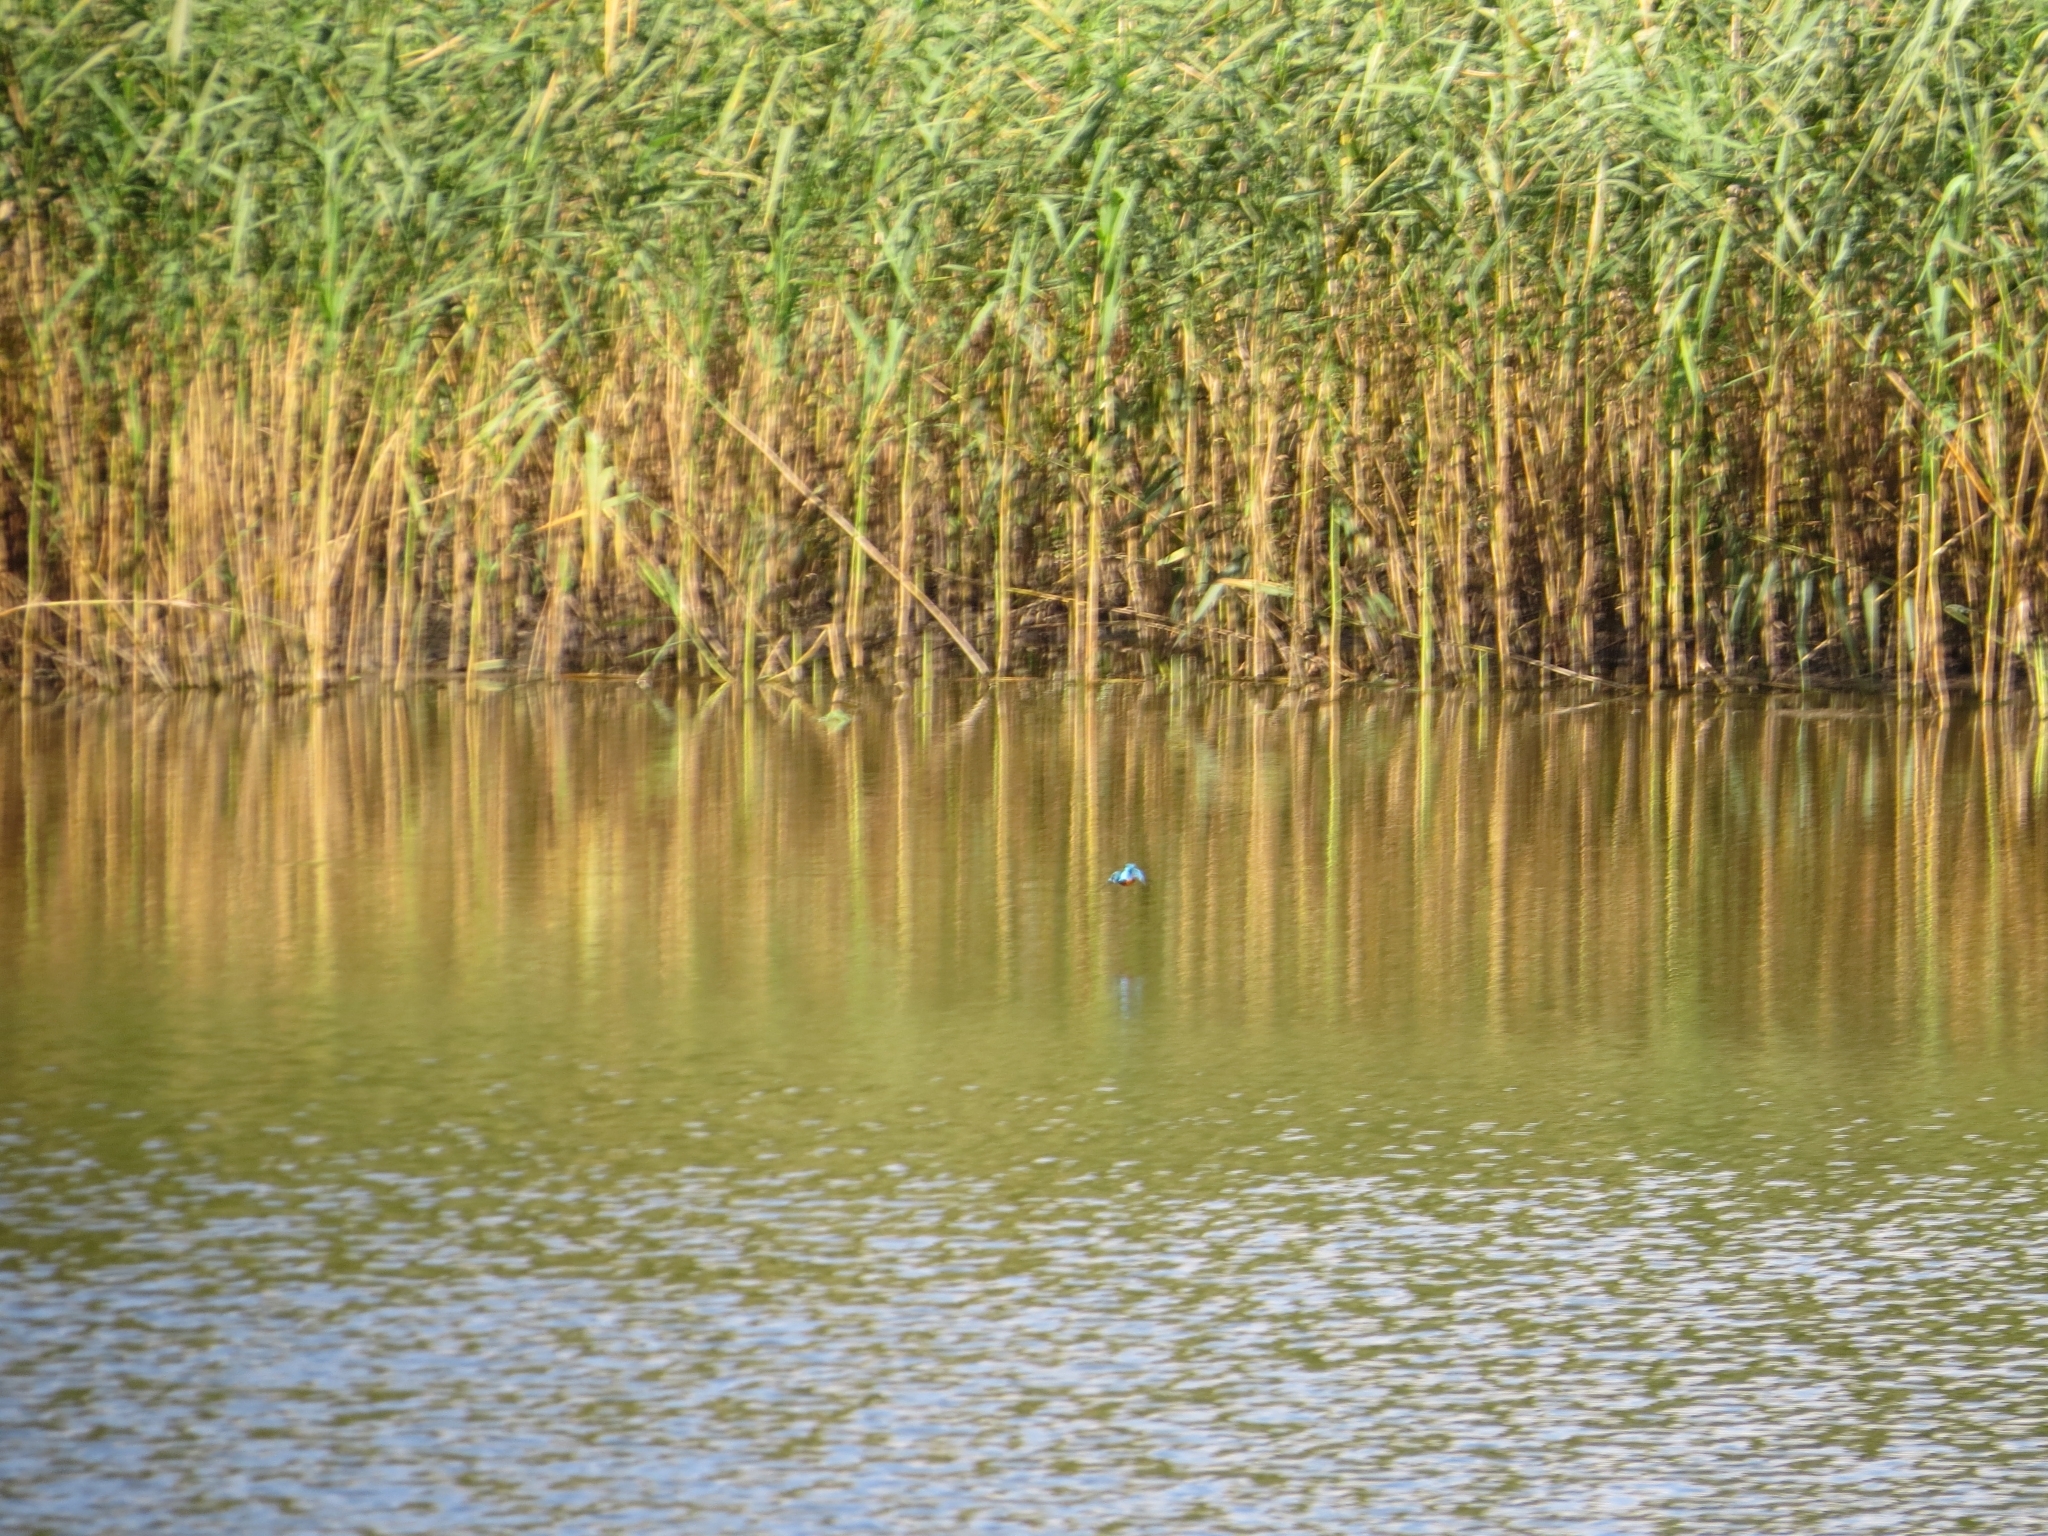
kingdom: Animalia
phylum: Chordata
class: Aves
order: Coraciiformes
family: Alcedinidae
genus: Alcedo
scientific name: Alcedo atthis
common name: Common kingfisher
